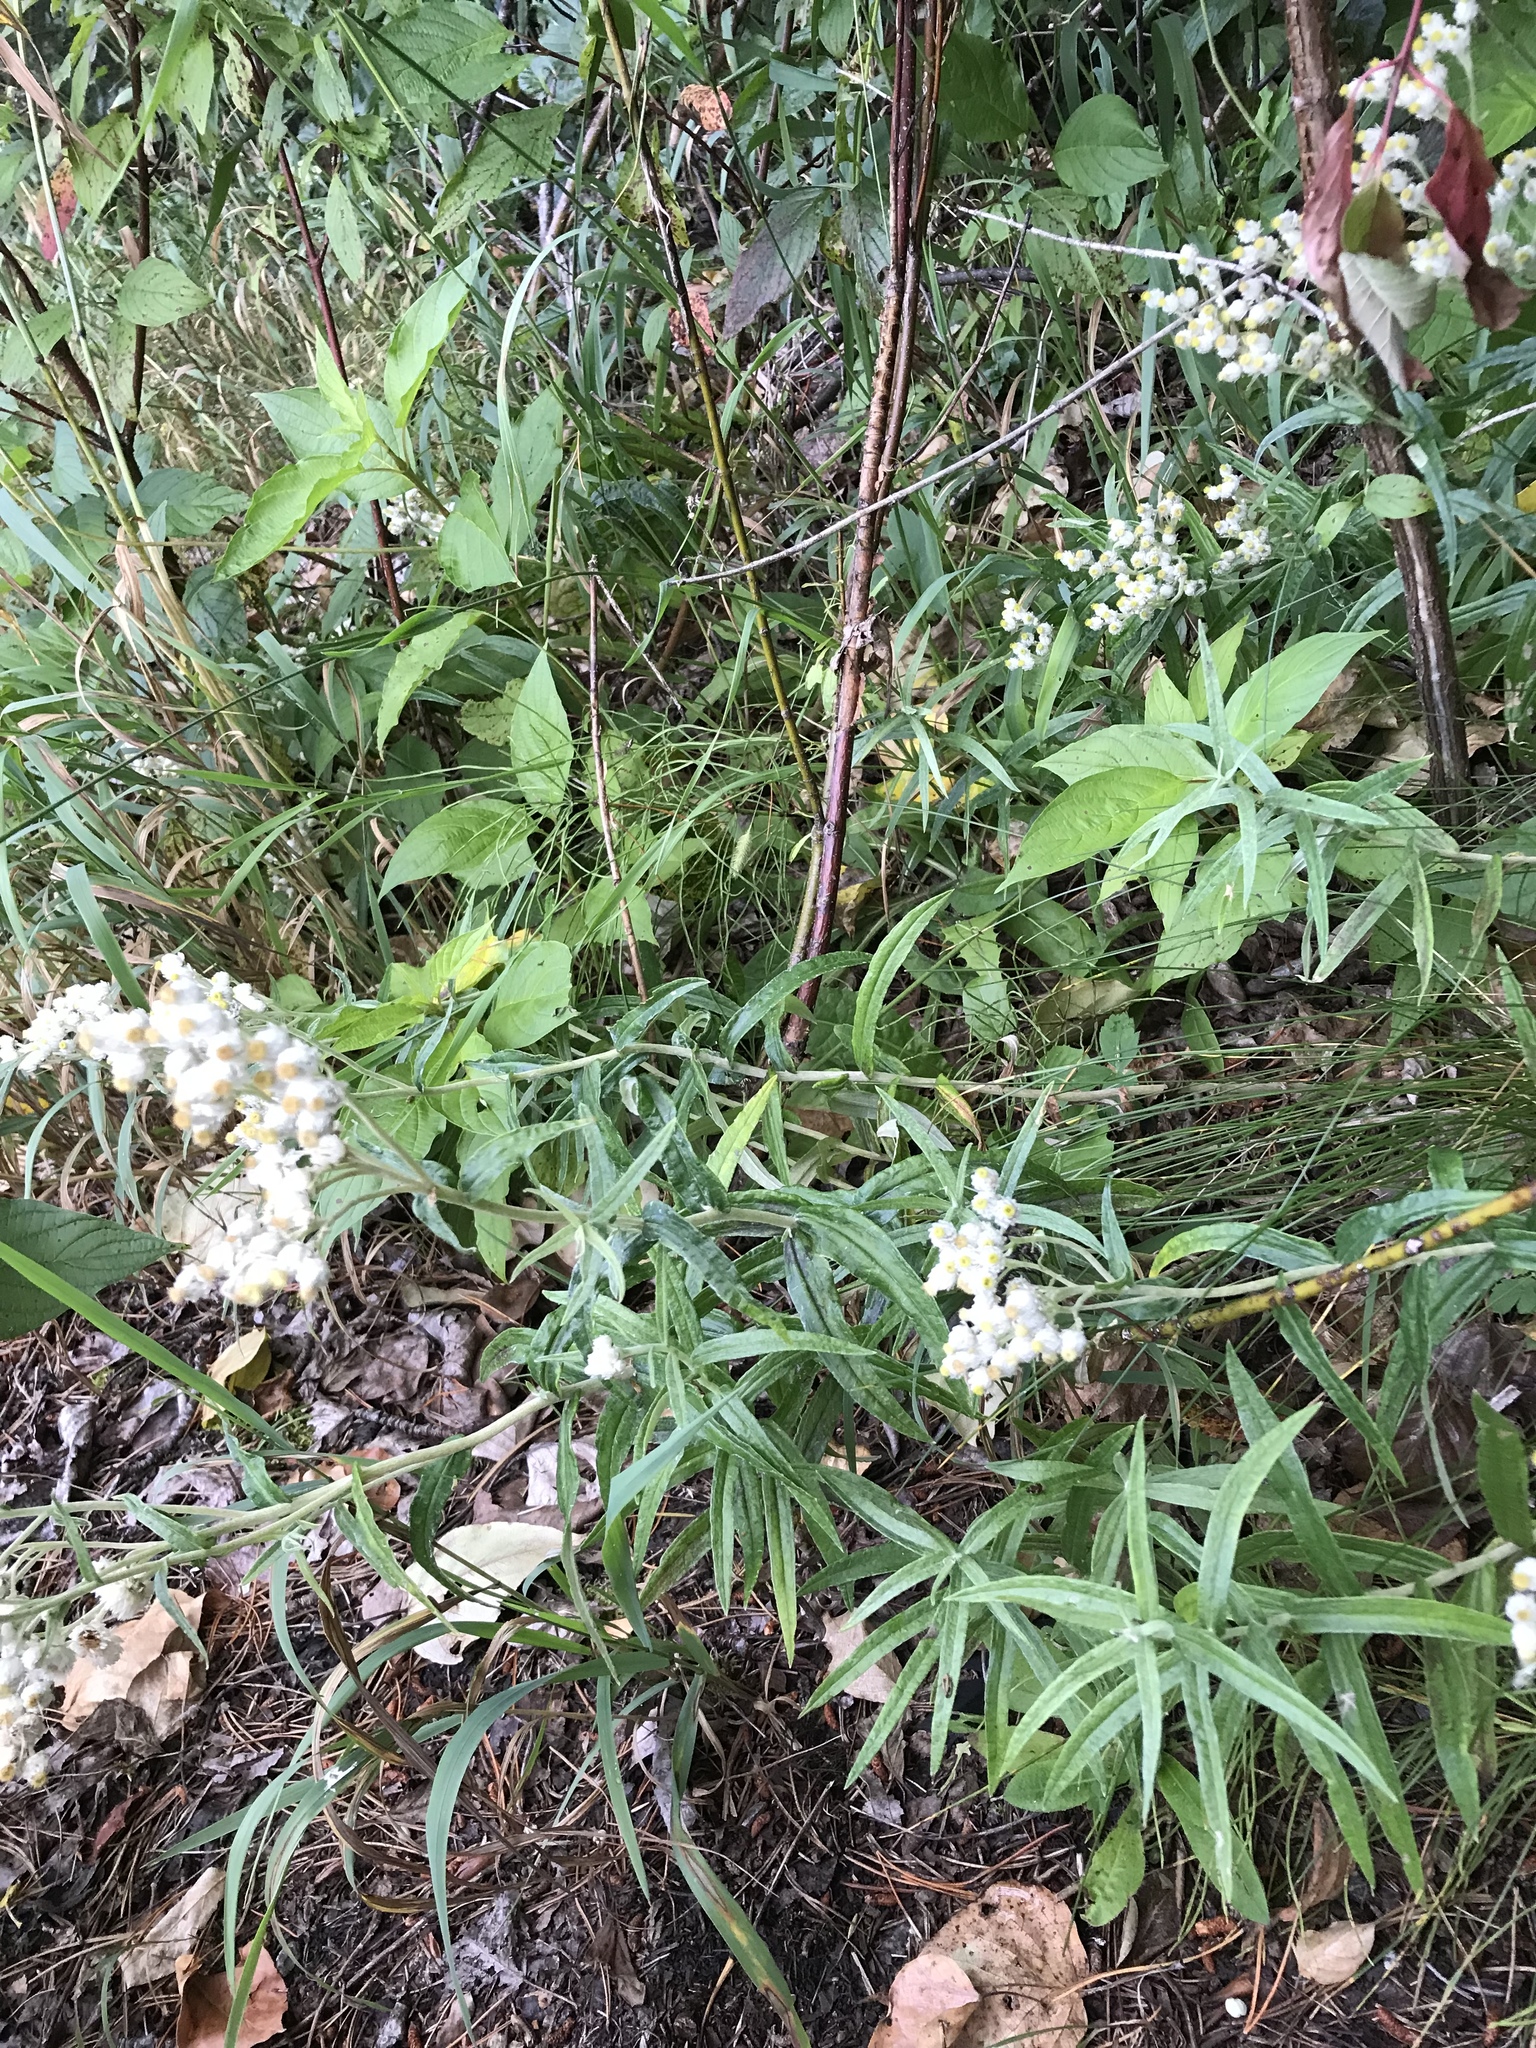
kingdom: Plantae
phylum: Tracheophyta
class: Magnoliopsida
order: Asterales
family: Asteraceae
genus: Anaphalis
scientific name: Anaphalis margaritacea
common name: Pearly everlasting
